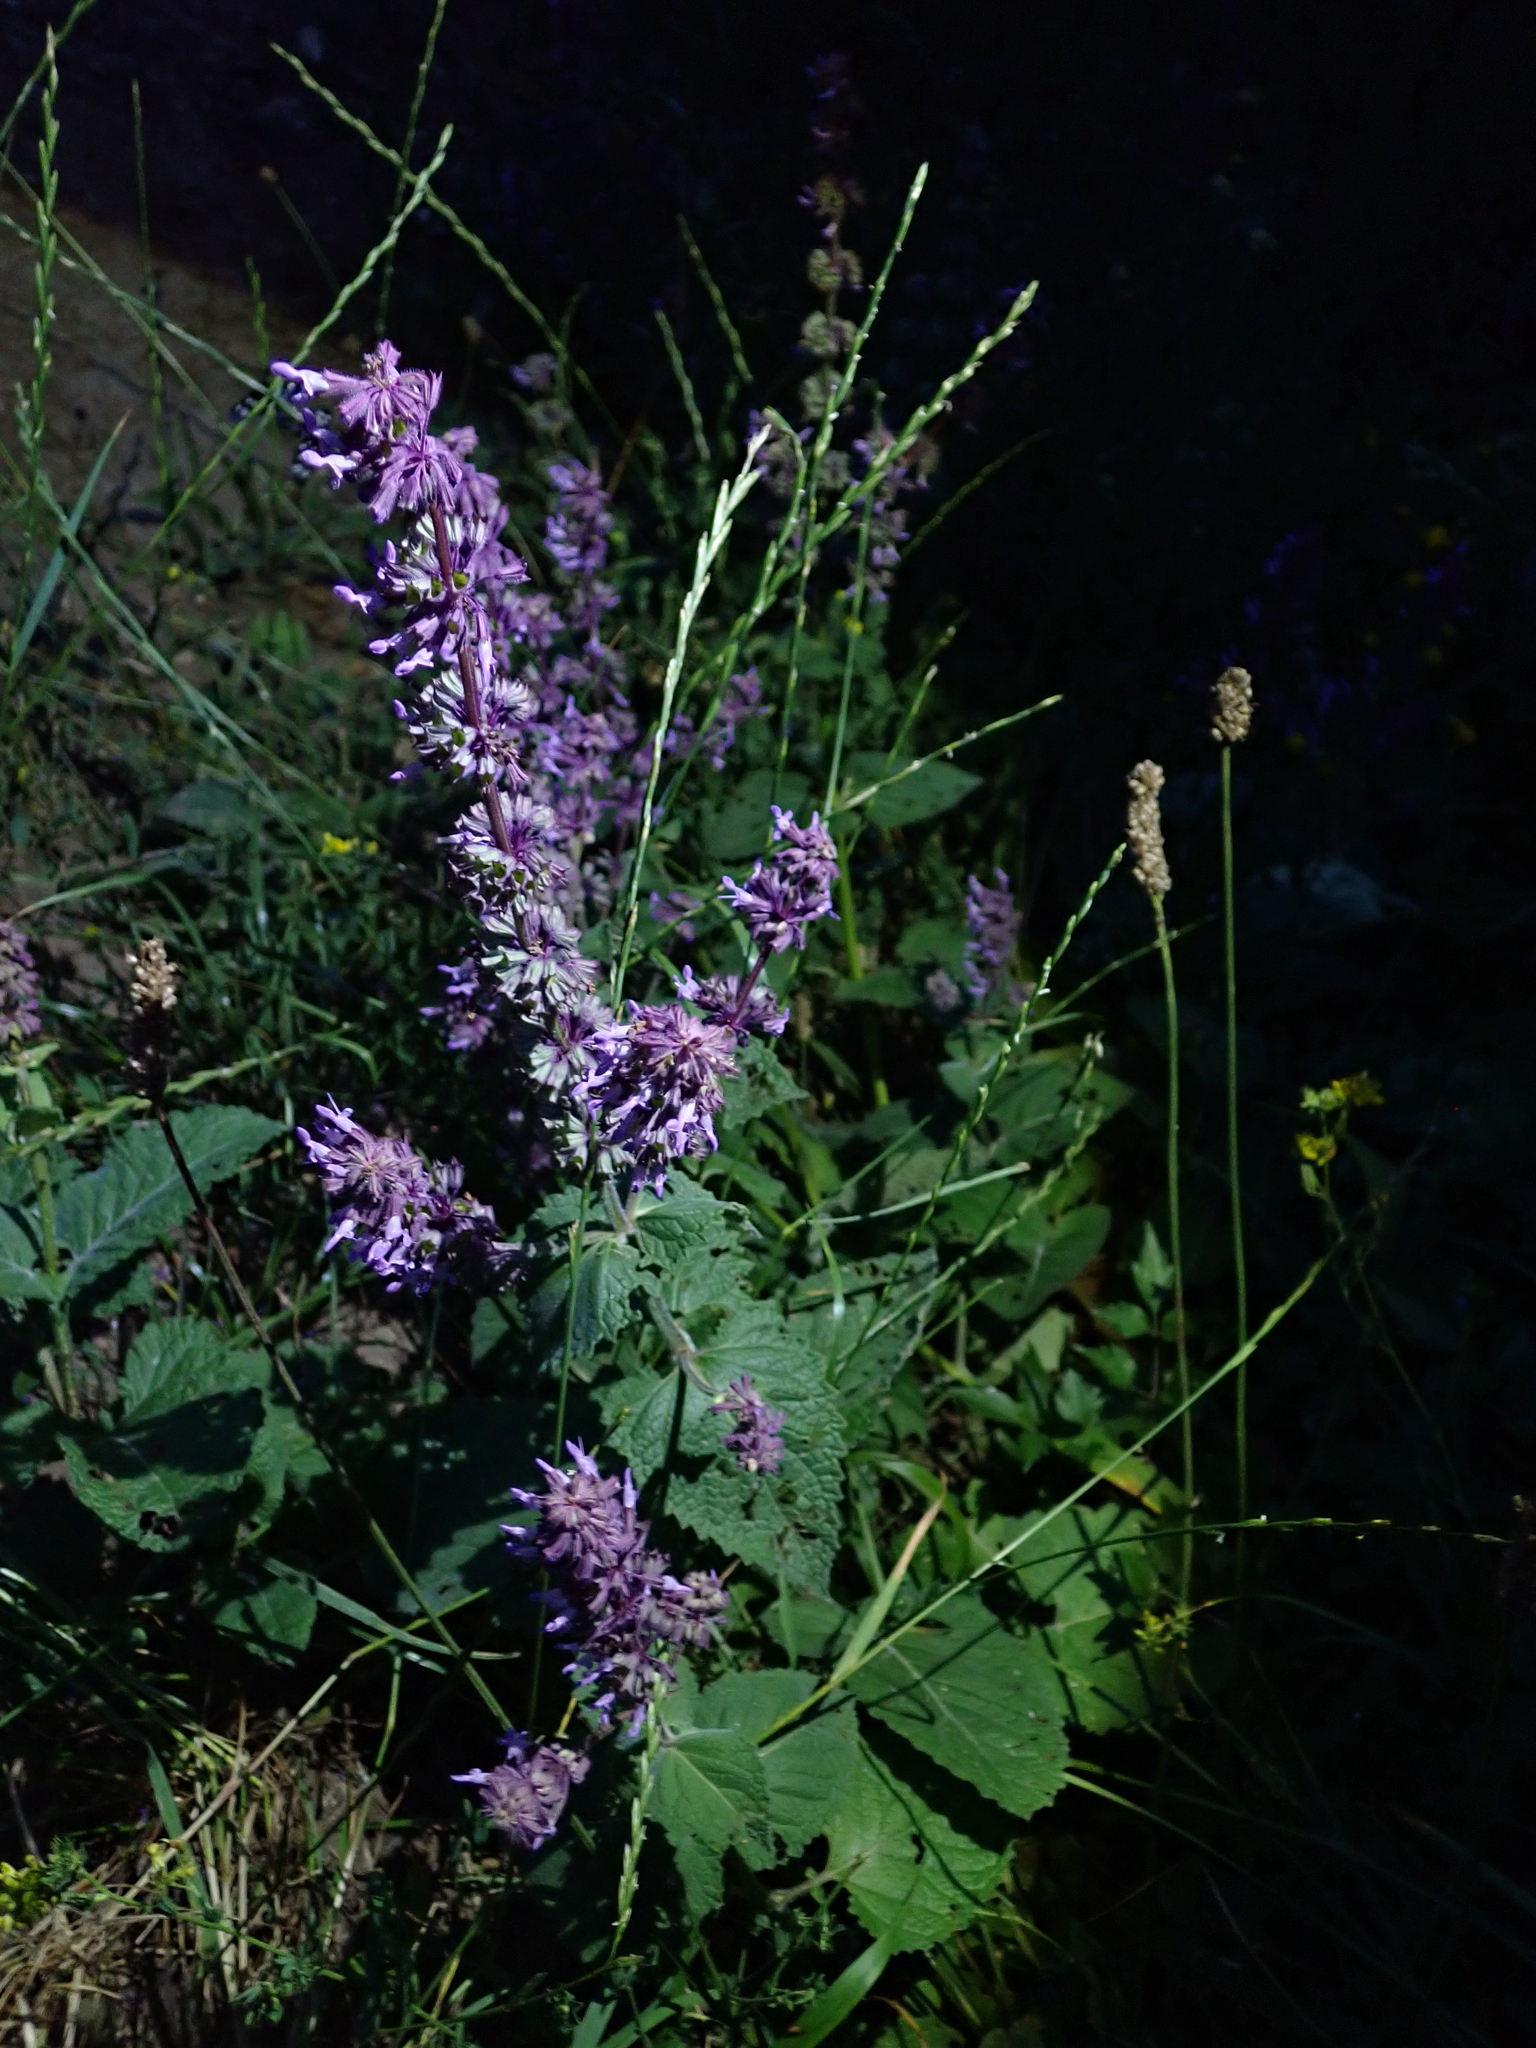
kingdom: Plantae
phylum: Tracheophyta
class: Magnoliopsida
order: Lamiales
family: Lamiaceae
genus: Salvia
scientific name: Salvia verticillata
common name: Whorled clary
